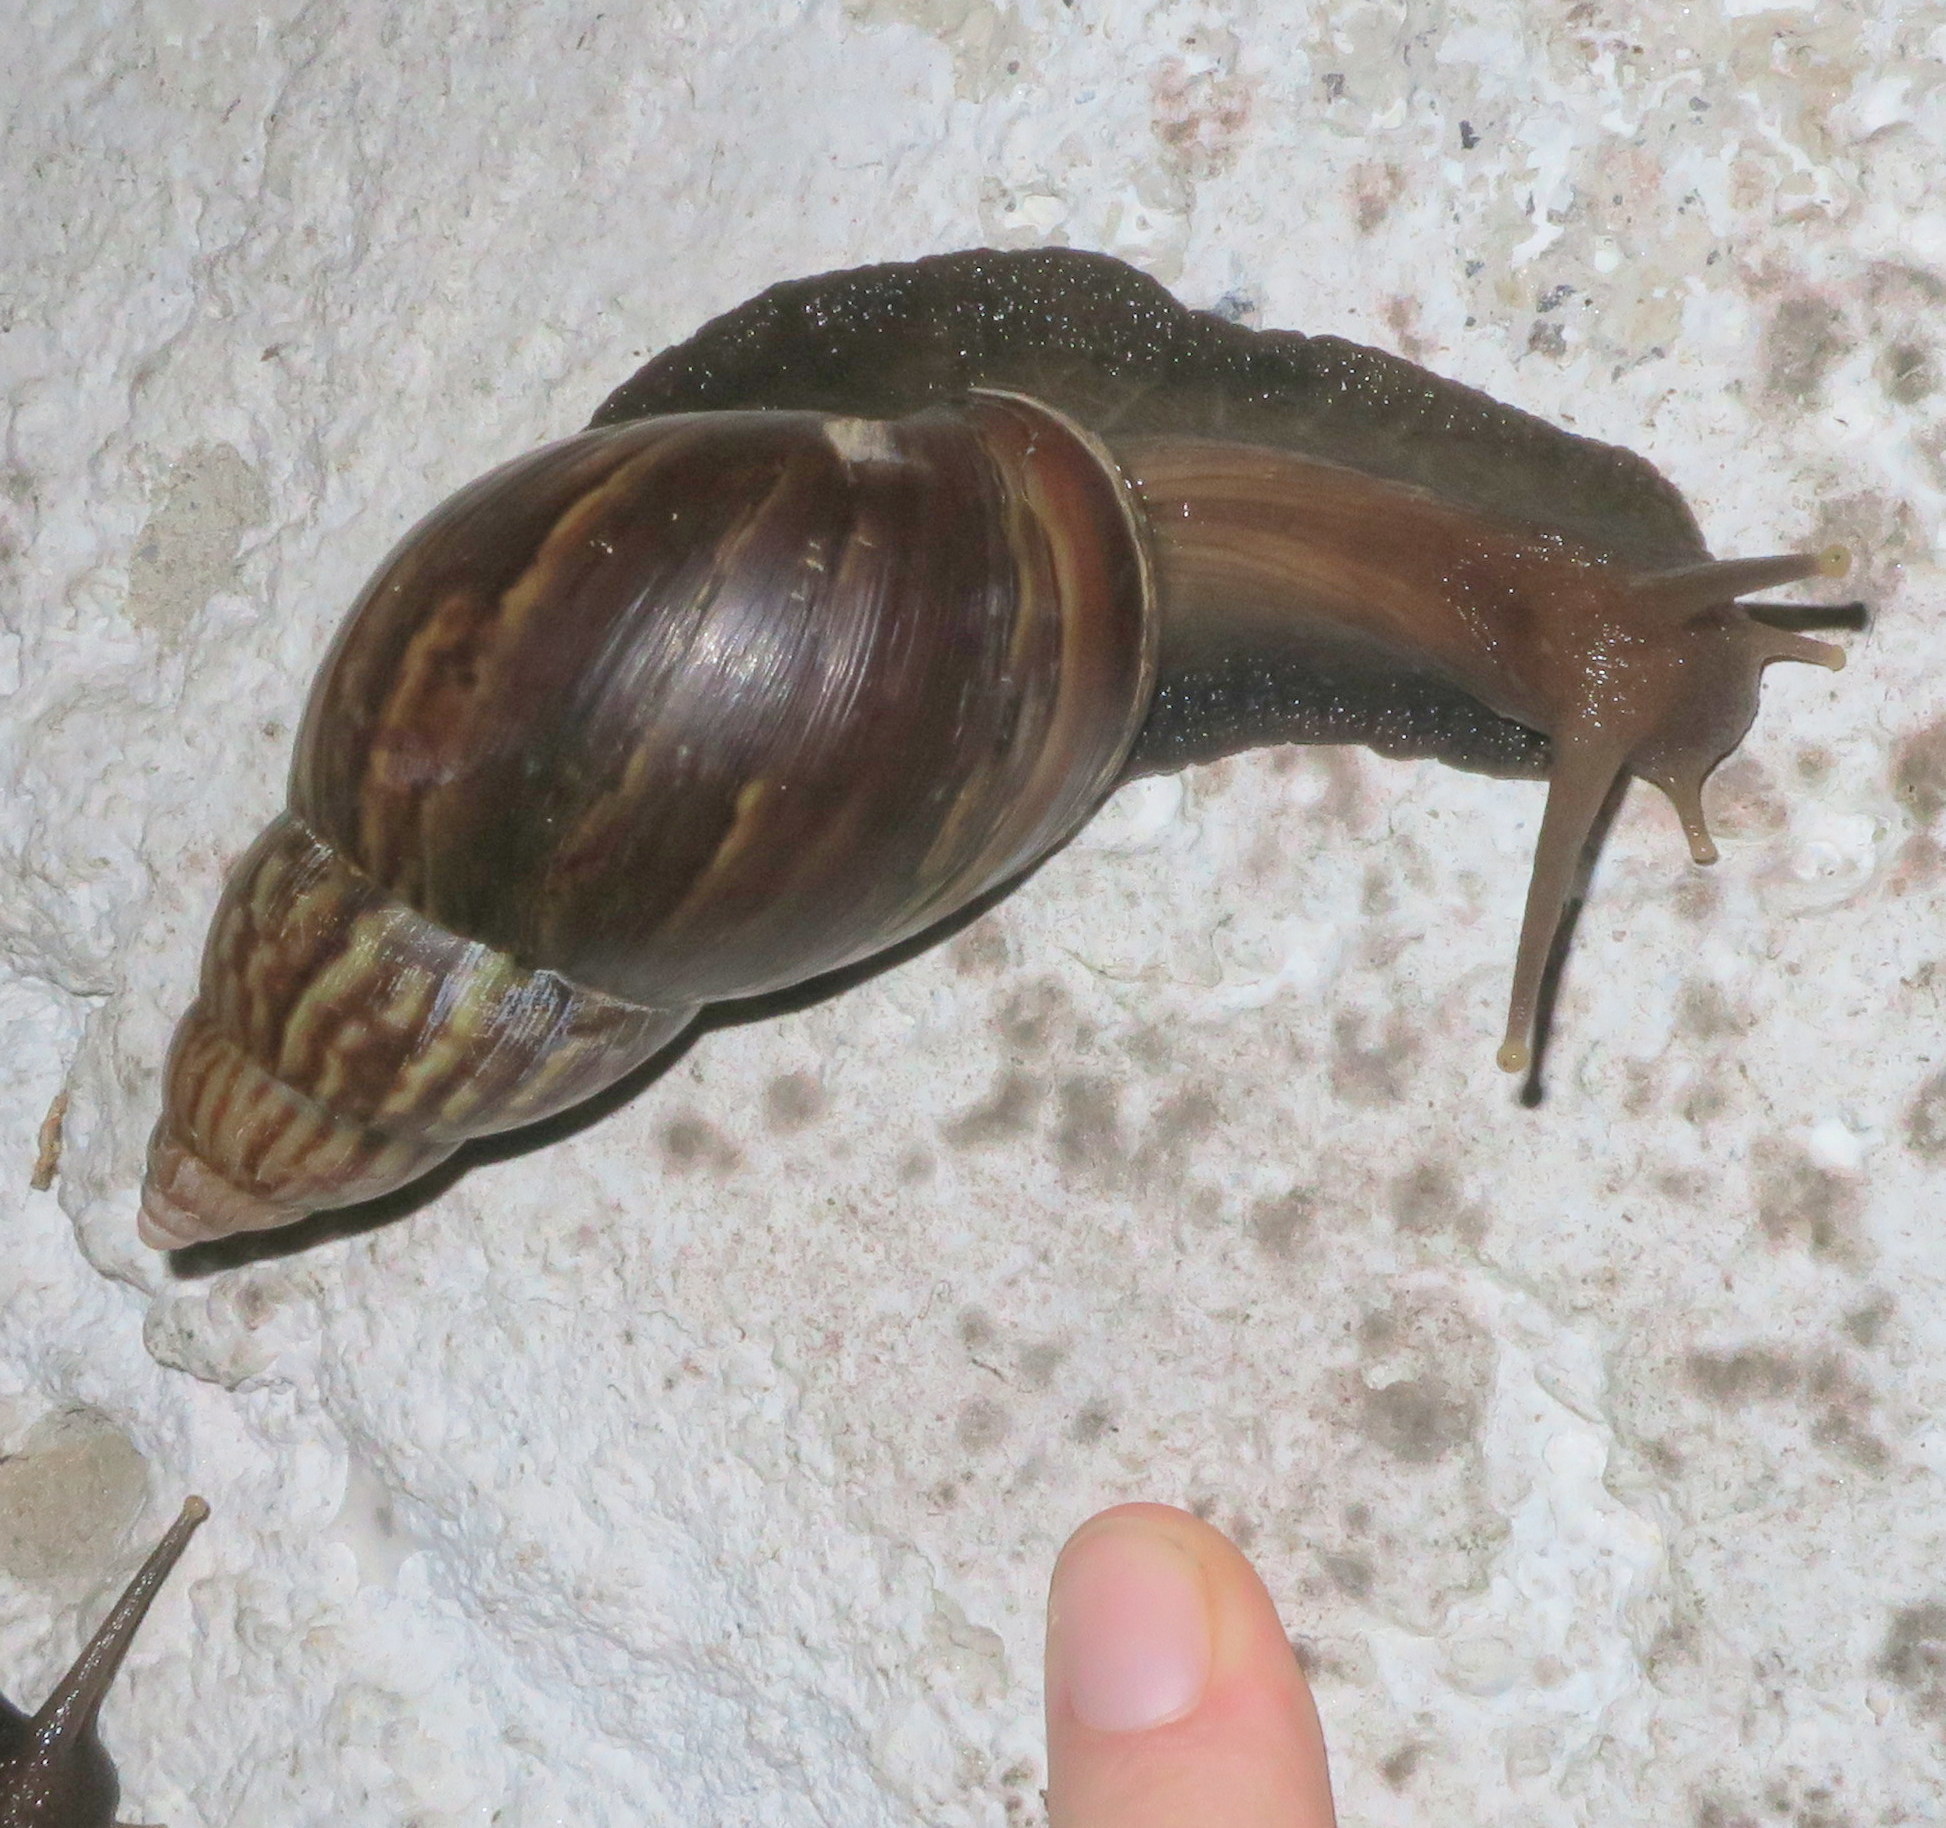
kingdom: Animalia
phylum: Mollusca
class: Gastropoda
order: Stylommatophora
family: Achatinidae
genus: Lissachatina
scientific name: Lissachatina fulica
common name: Giant african snail
